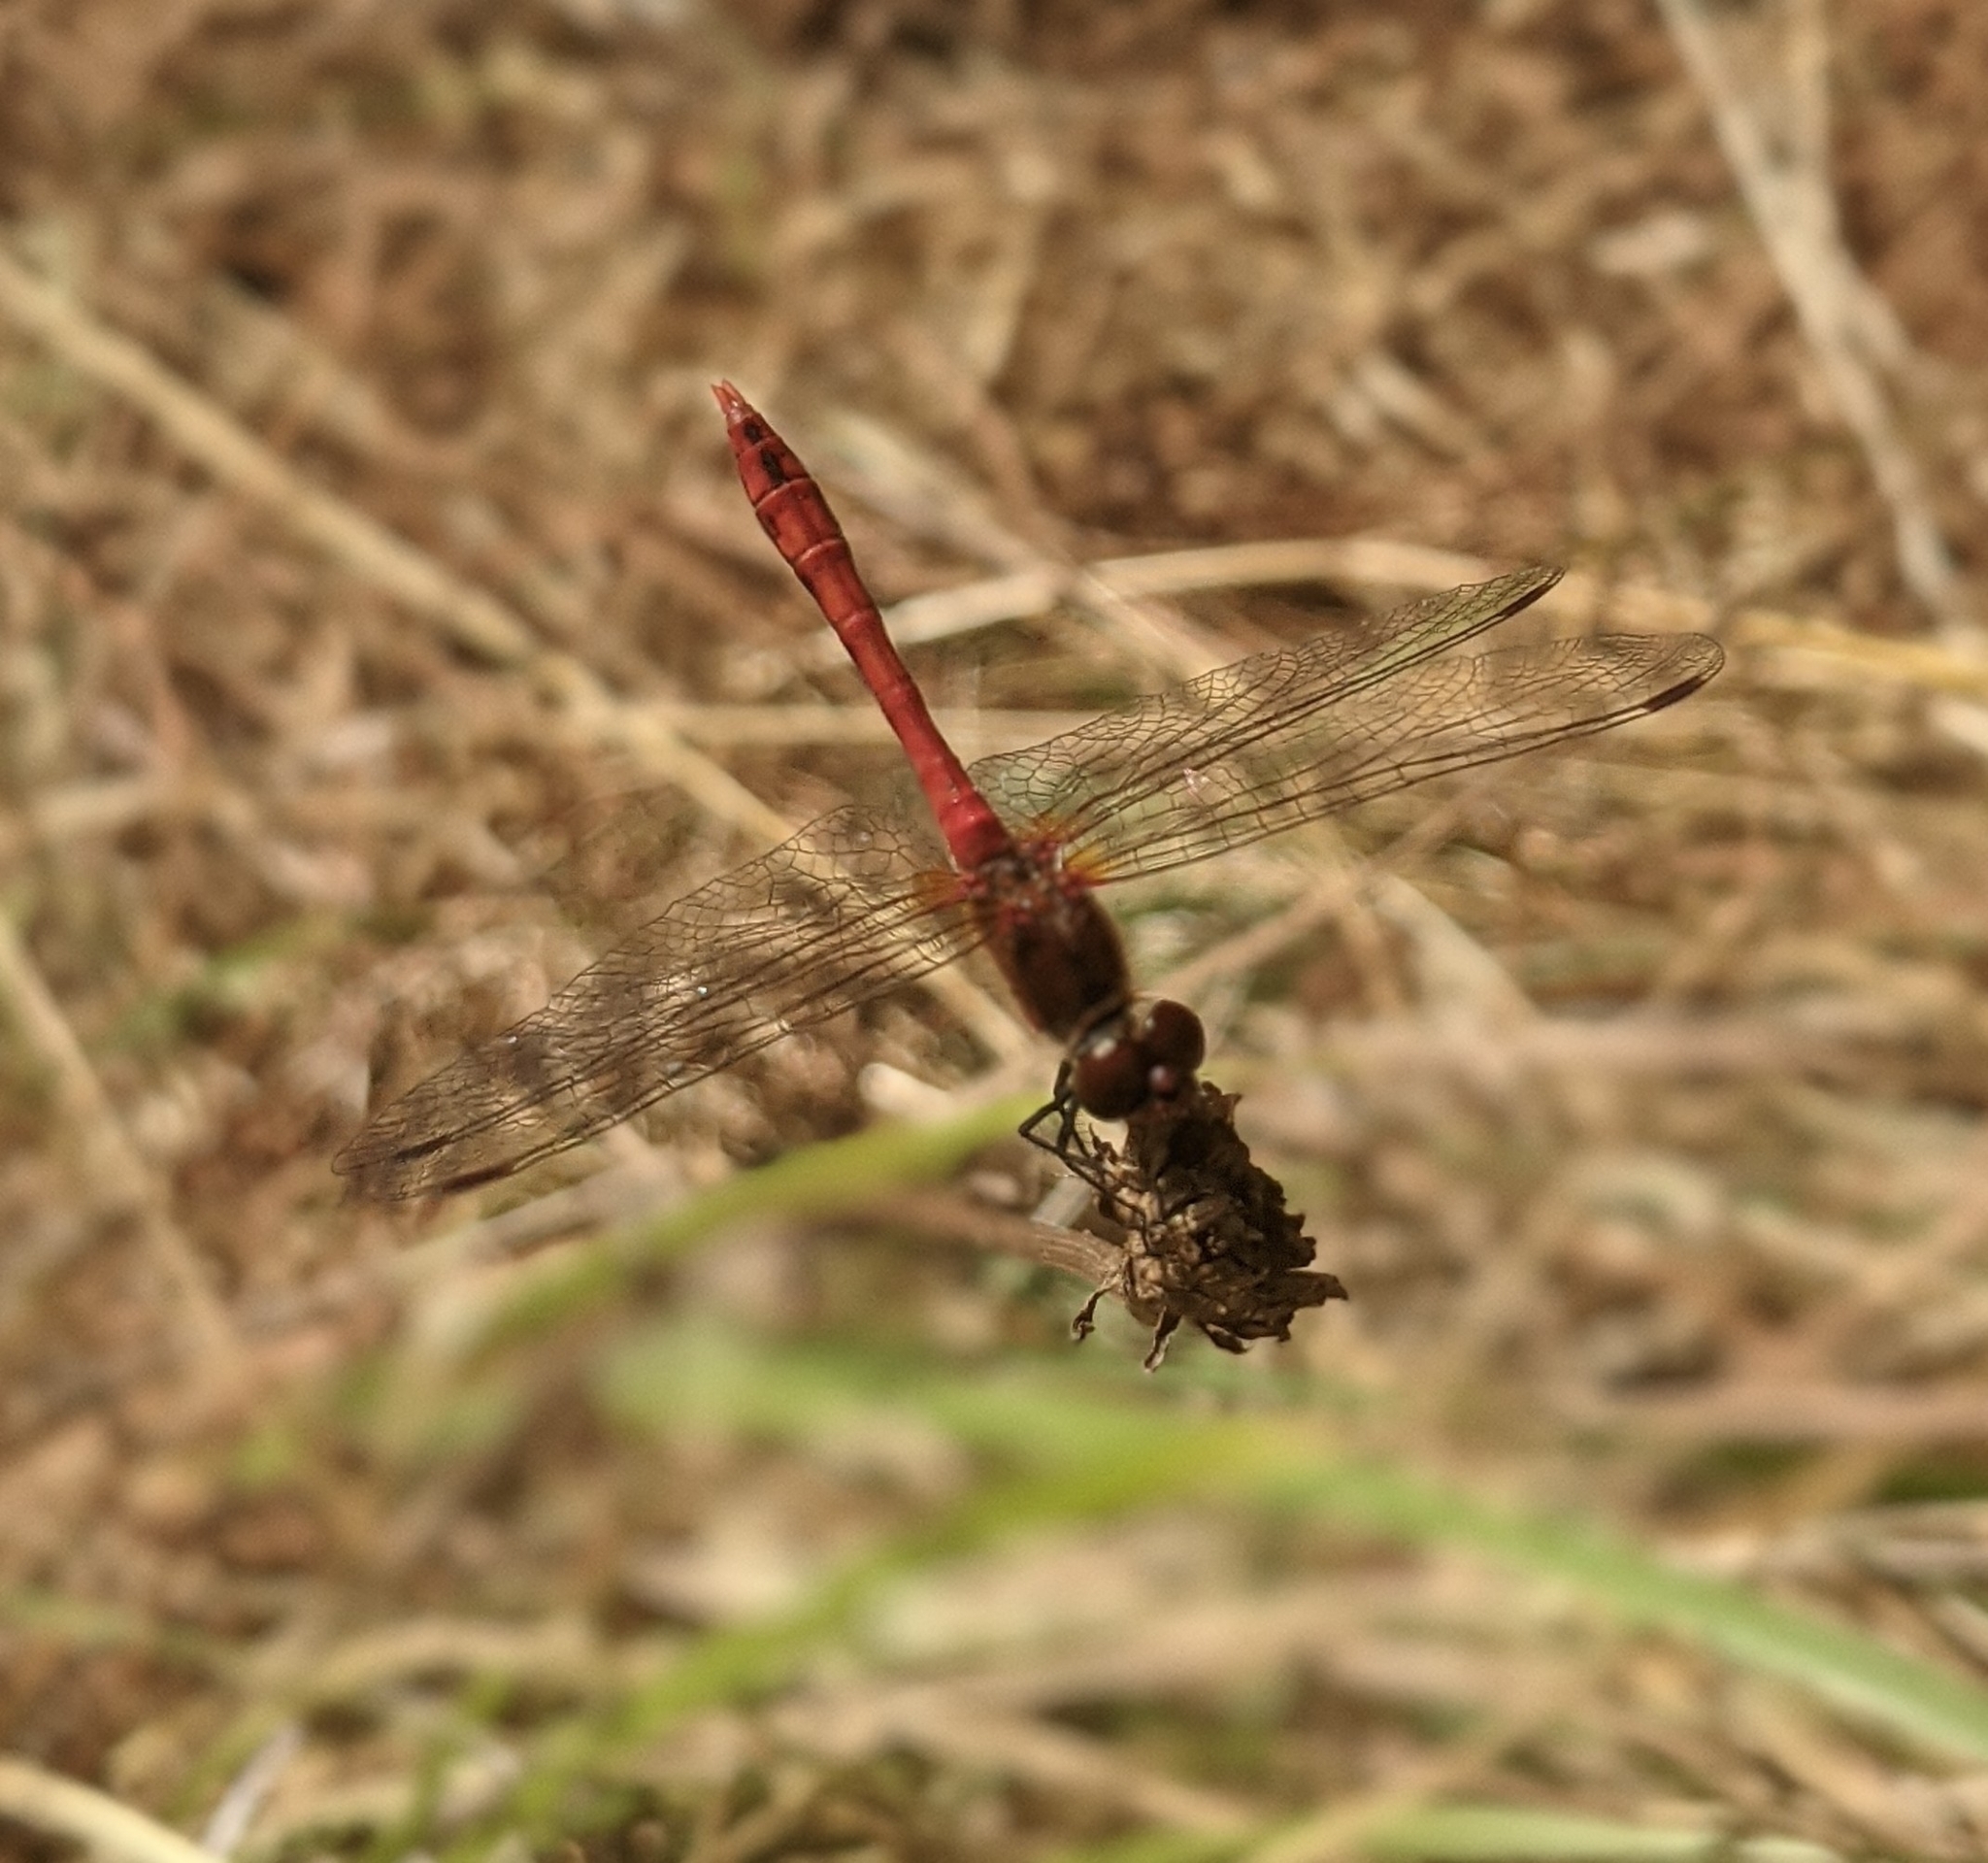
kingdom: Animalia
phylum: Arthropoda
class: Insecta
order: Odonata
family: Libellulidae
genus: Sympetrum
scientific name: Sympetrum sanguineum
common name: Ruddy darter
